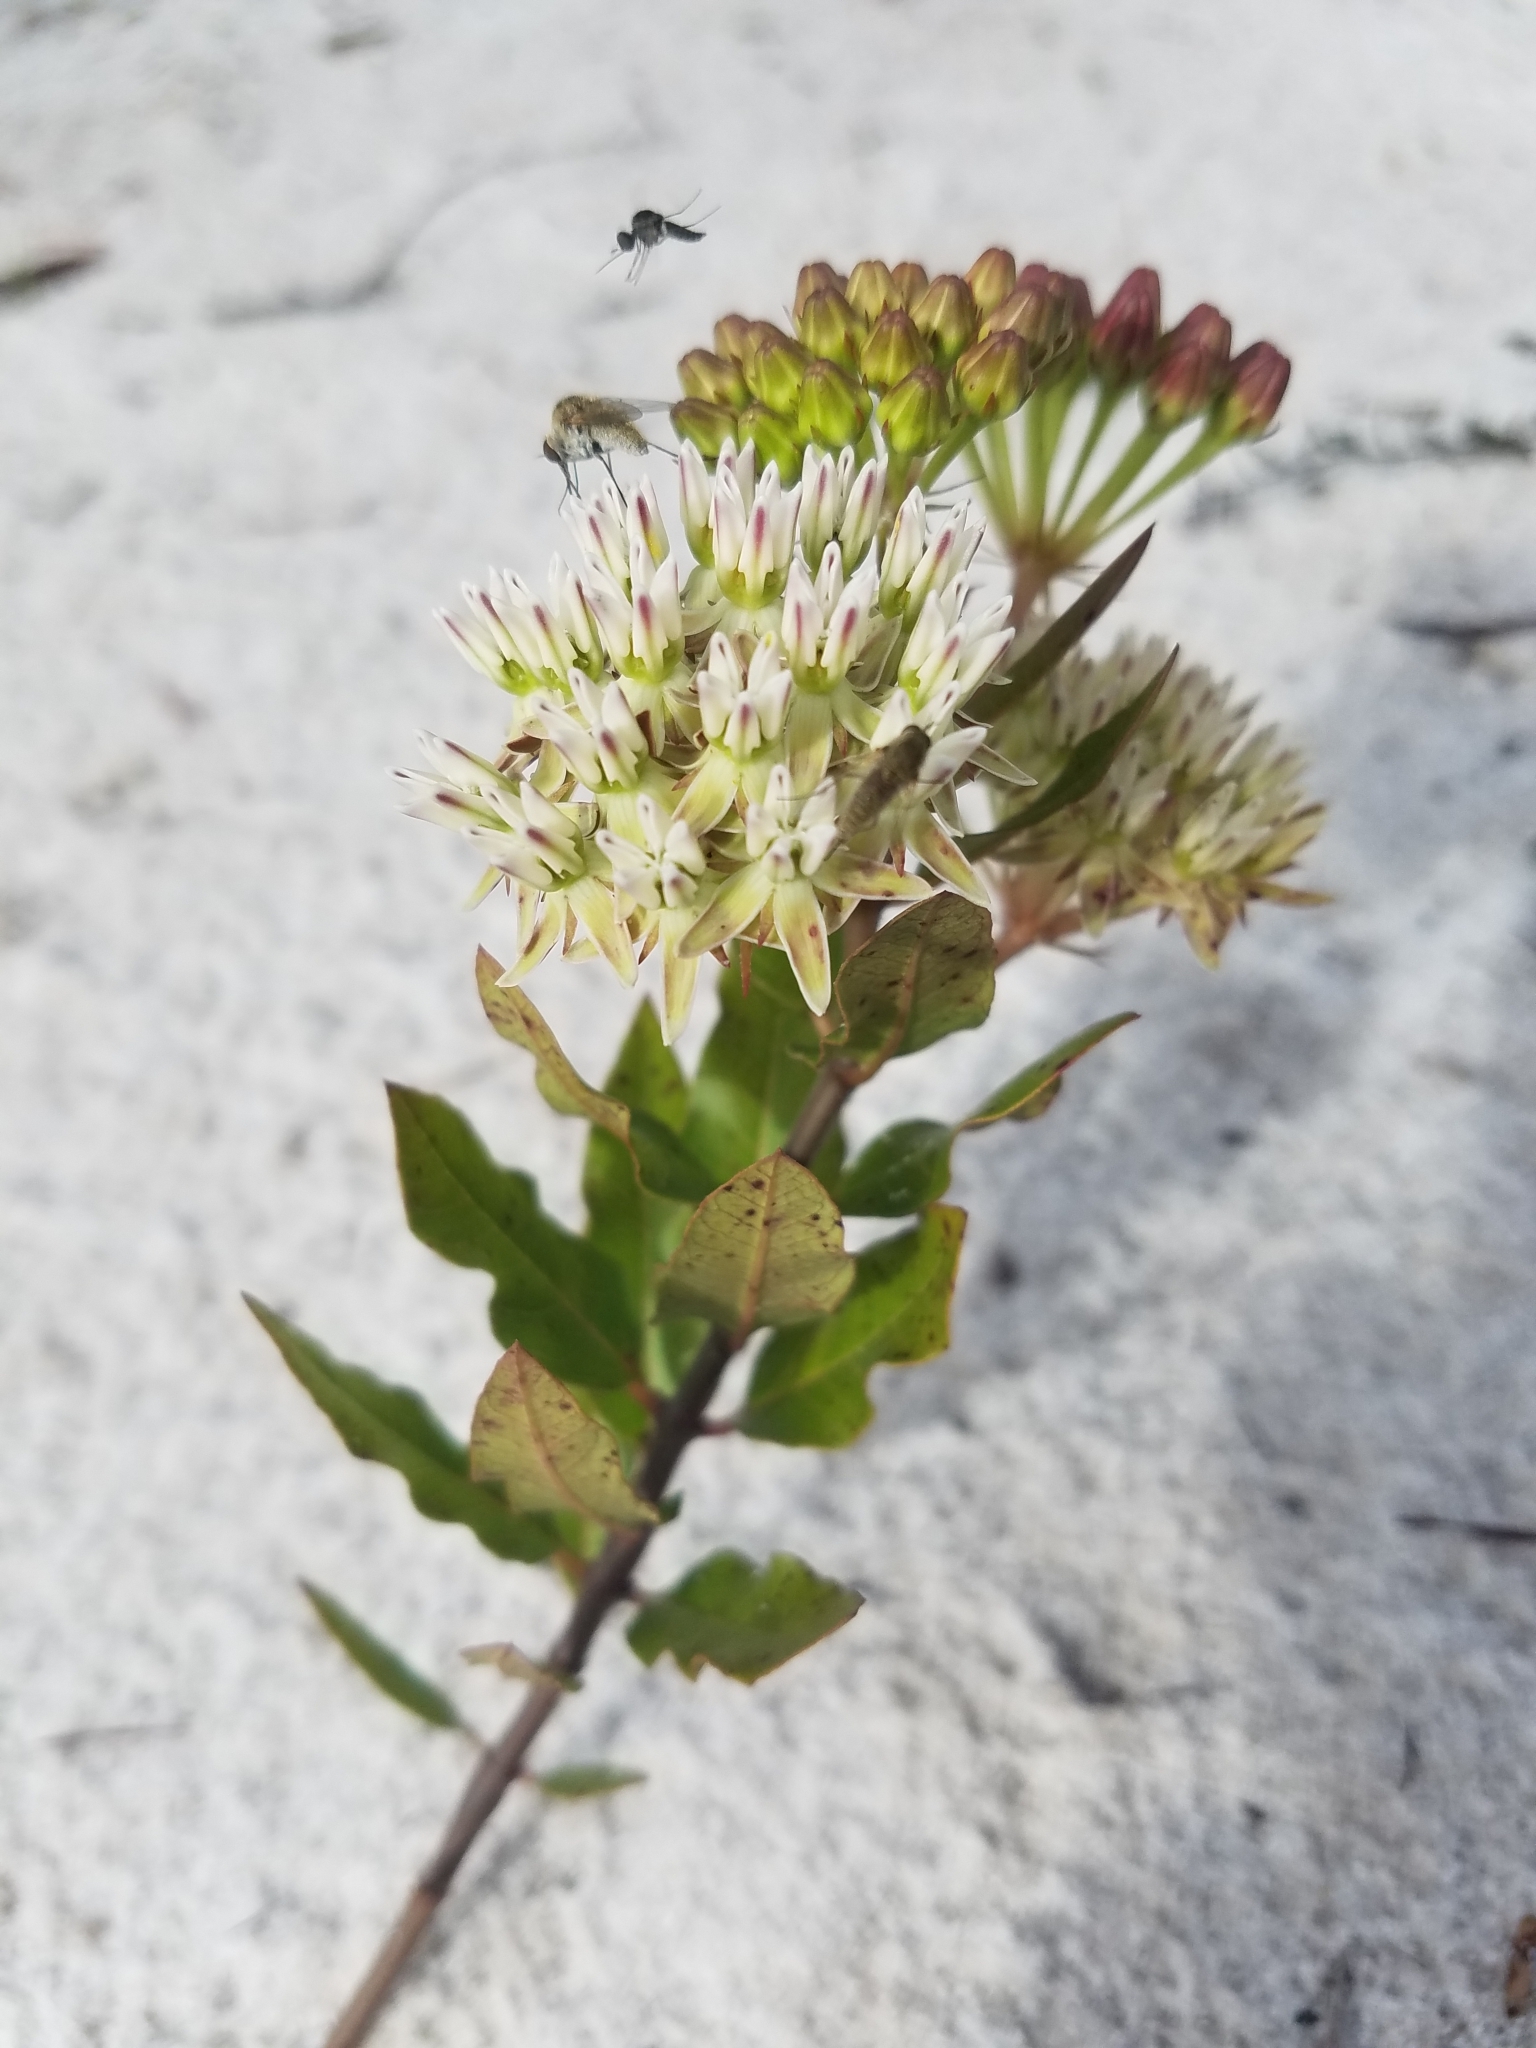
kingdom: Plantae
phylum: Tracheophyta
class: Magnoliopsida
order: Gentianales
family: Apocynaceae
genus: Asclepias
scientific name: Asclepias curtissii
